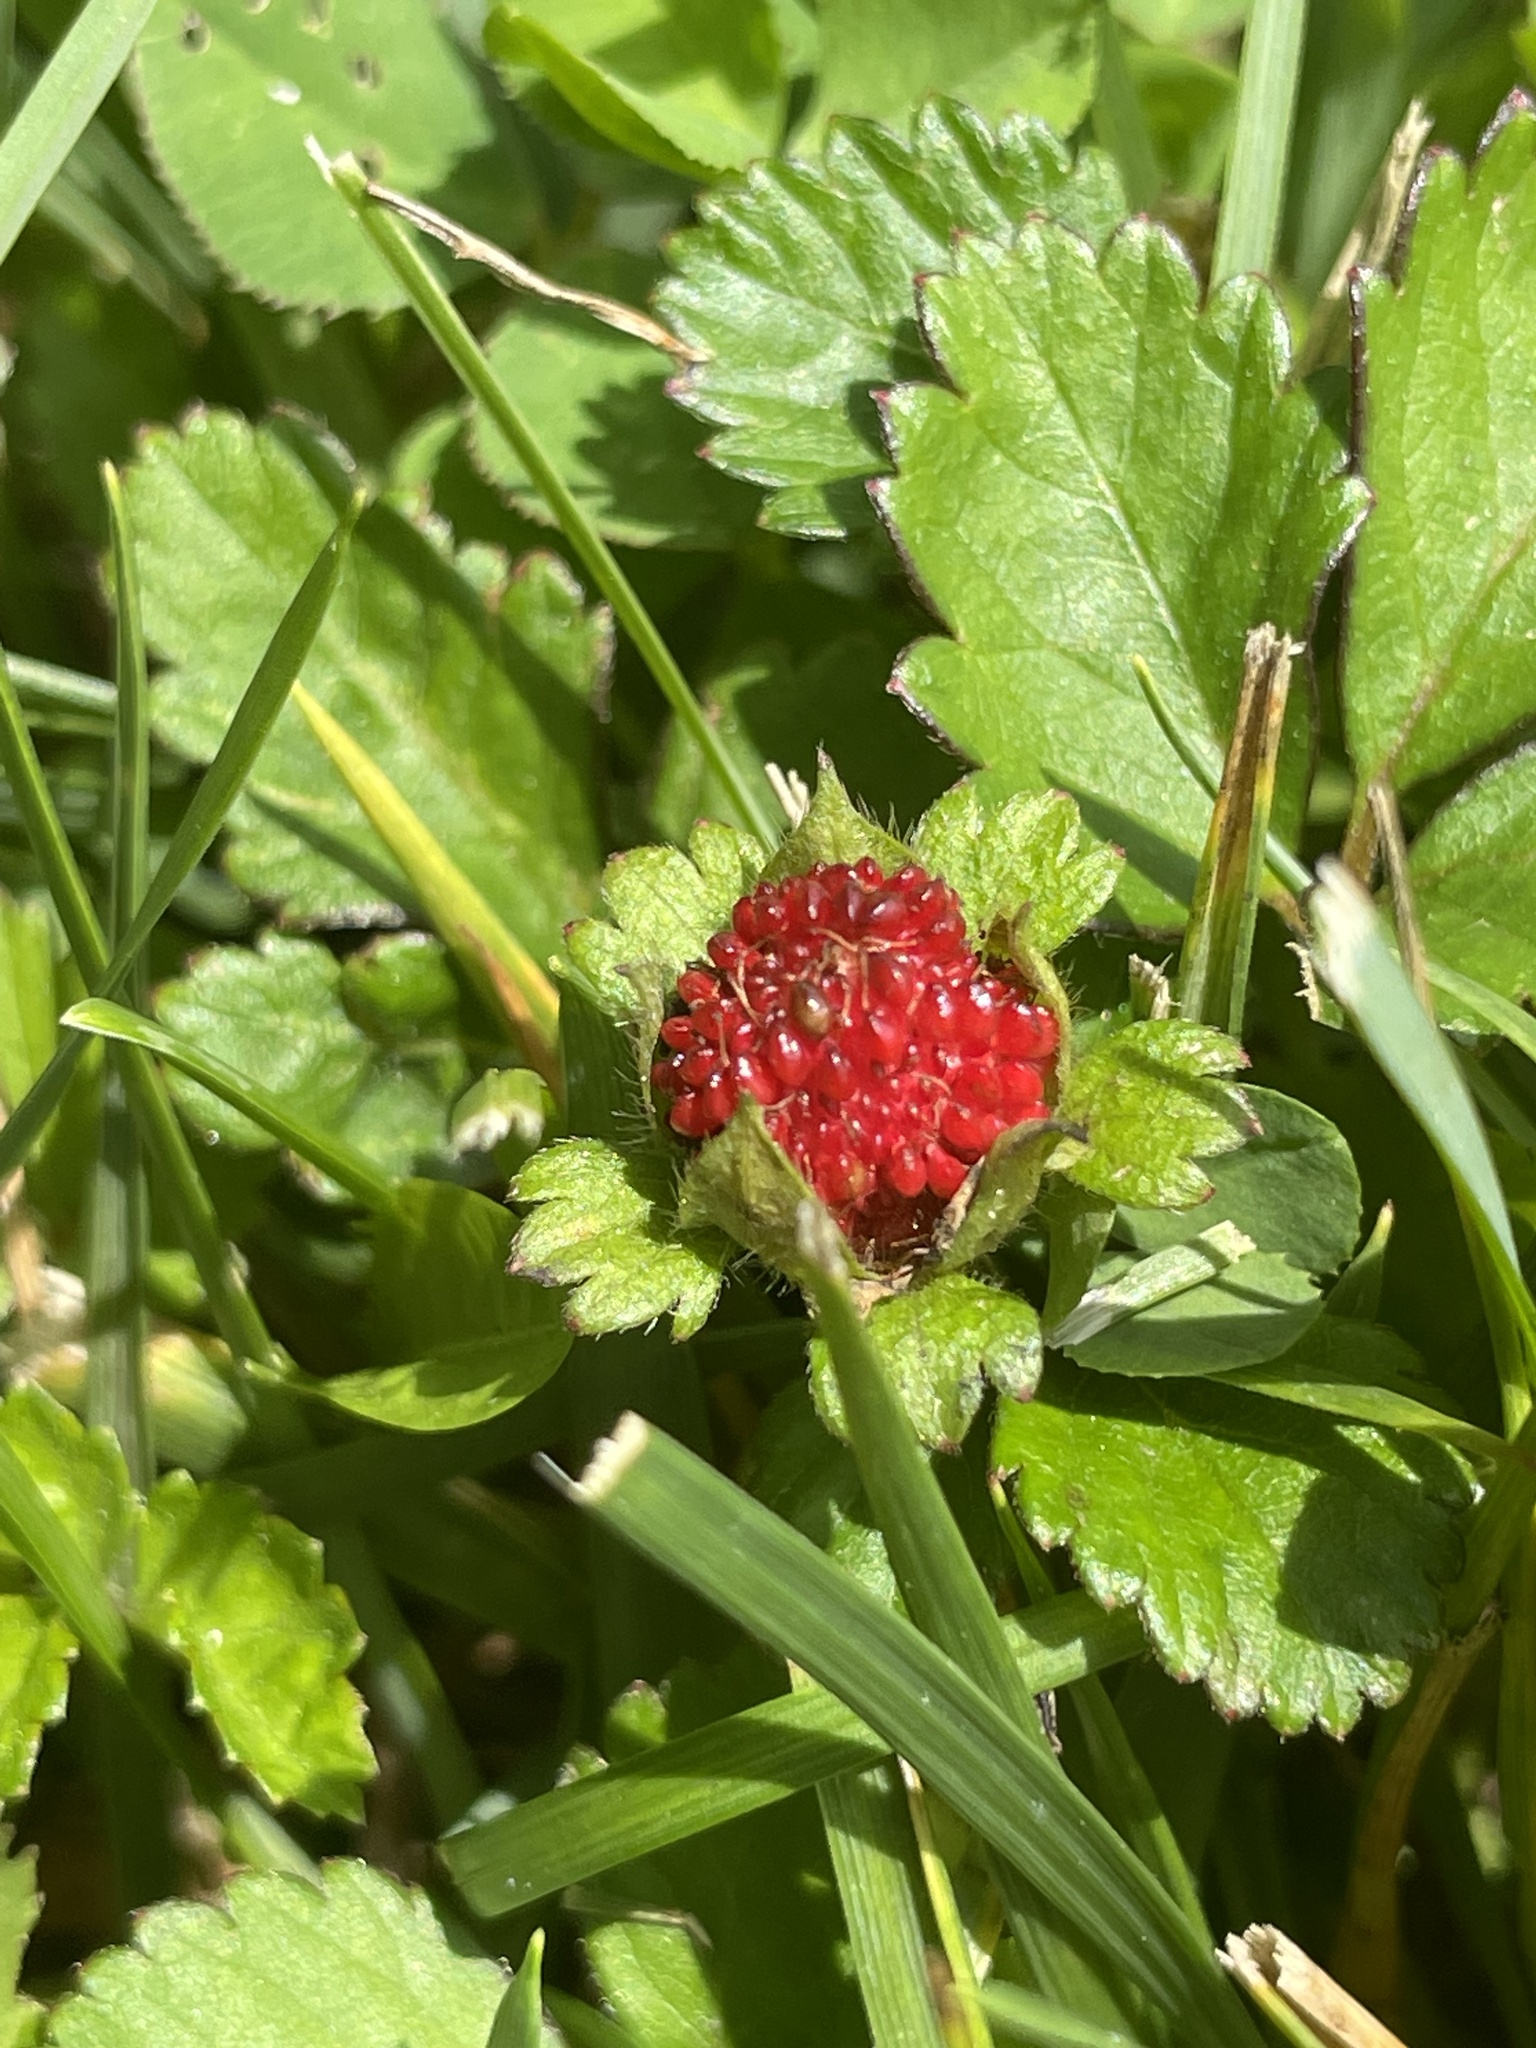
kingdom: Plantae
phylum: Tracheophyta
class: Magnoliopsida
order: Rosales
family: Rosaceae
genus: Potentilla
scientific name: Potentilla indica
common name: Yellow-flowered strawberry
